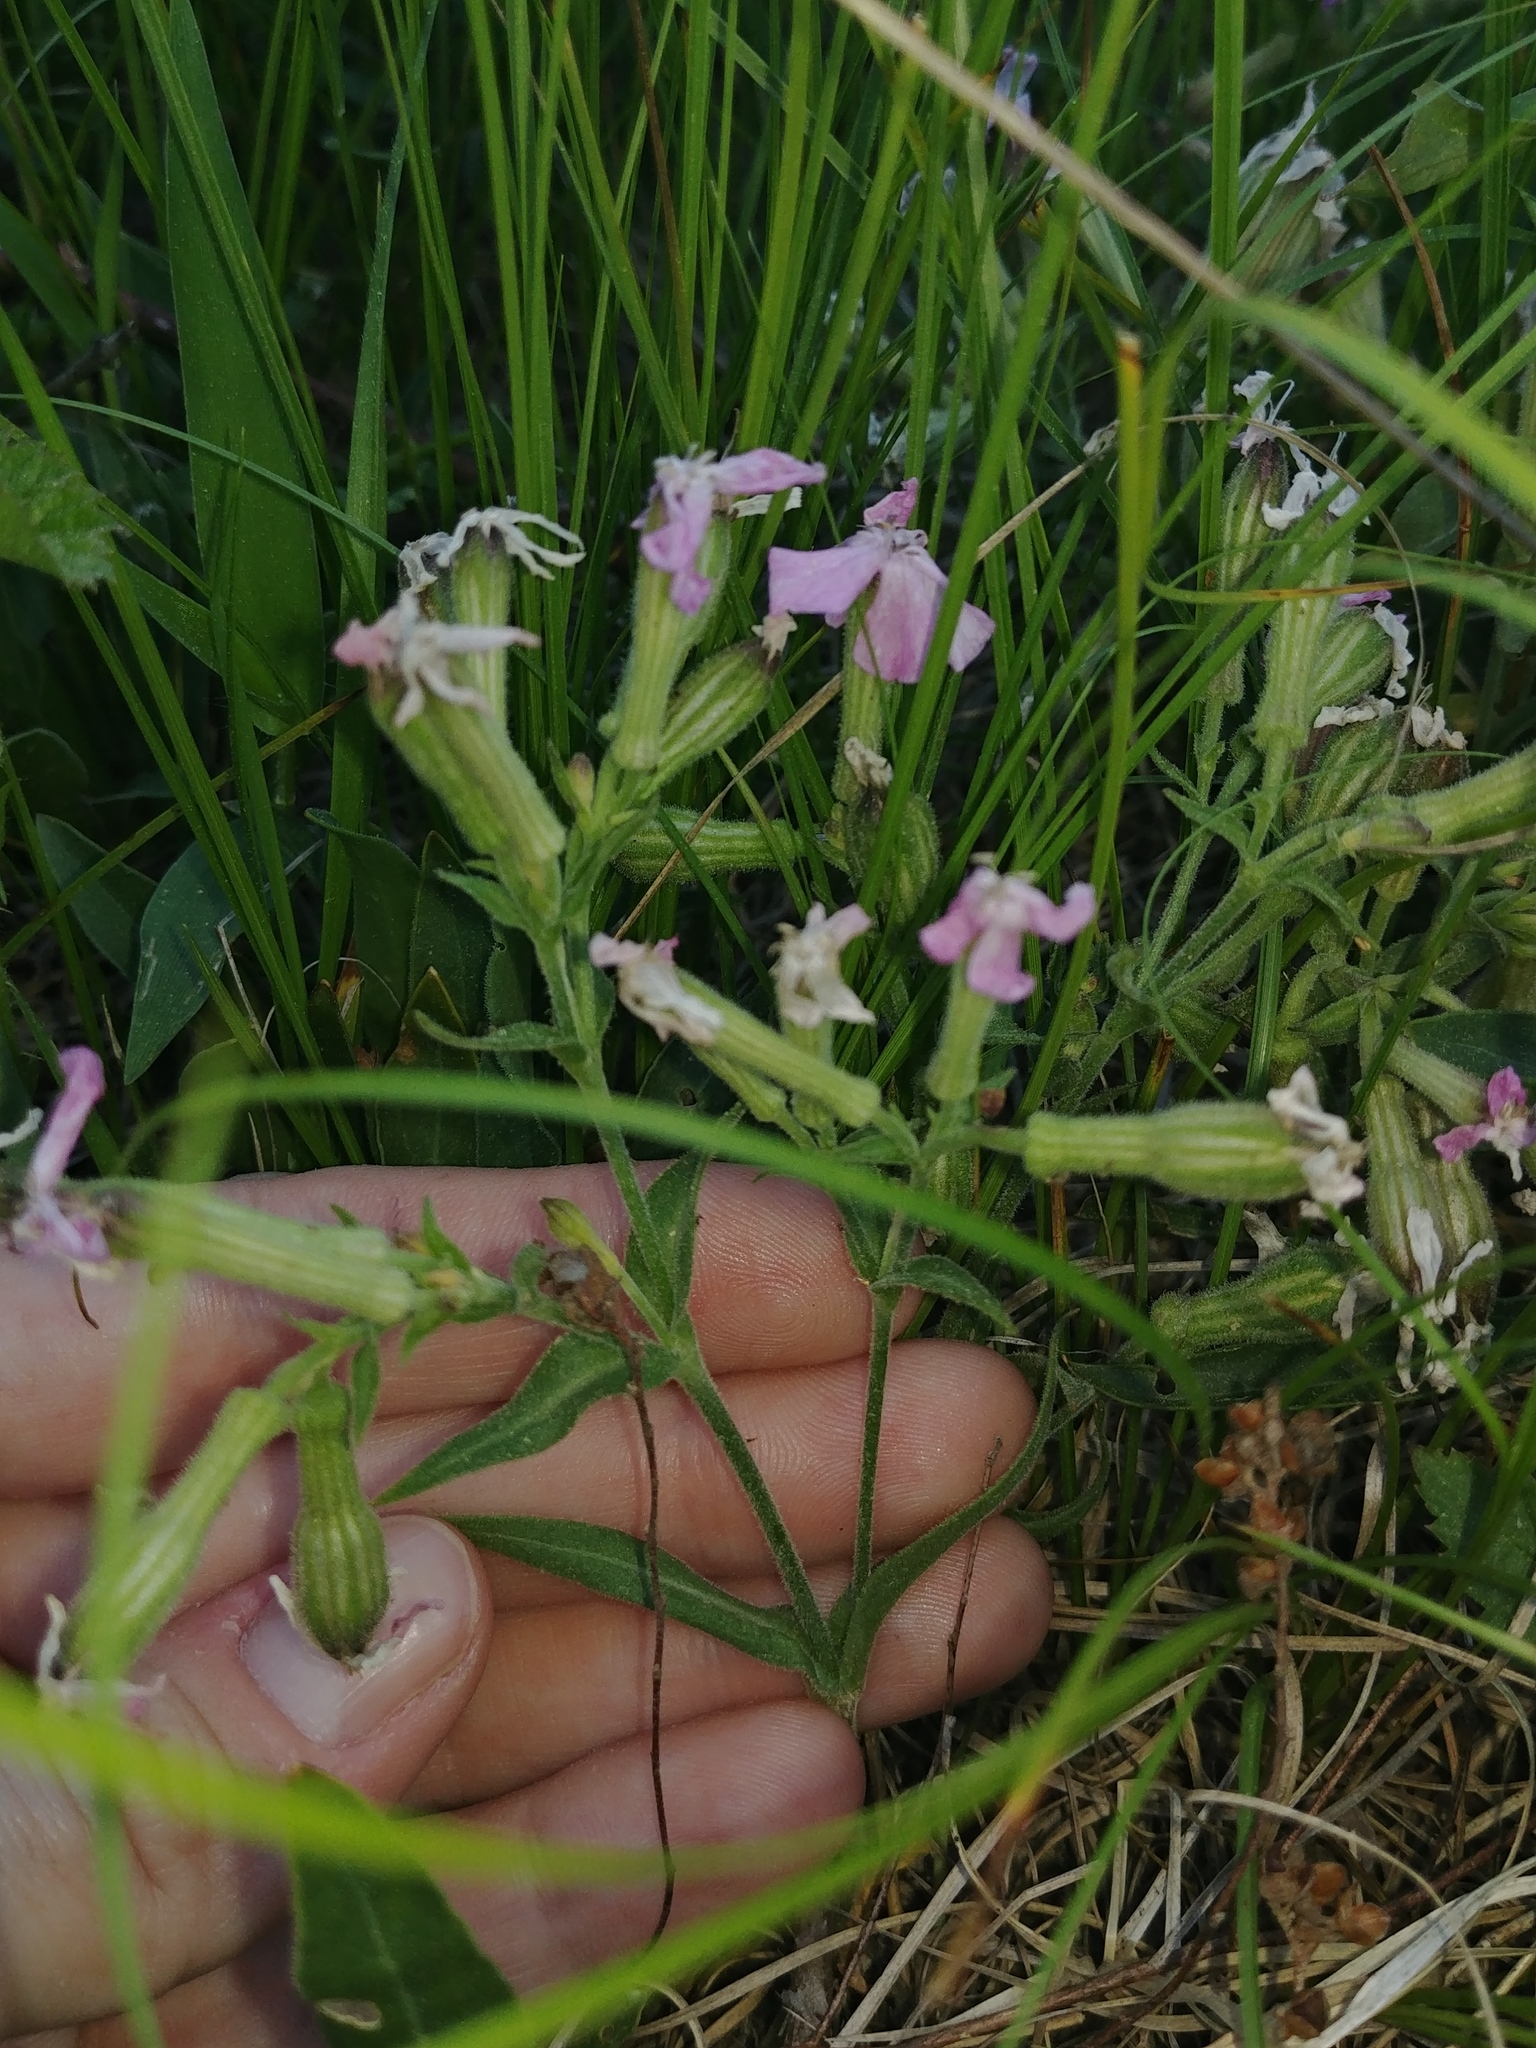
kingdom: Plantae
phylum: Tracheophyta
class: Magnoliopsida
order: Caryophyllales
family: Caryophyllaceae
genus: Silene
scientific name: Silene caroliniana
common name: Sticky catchfly
